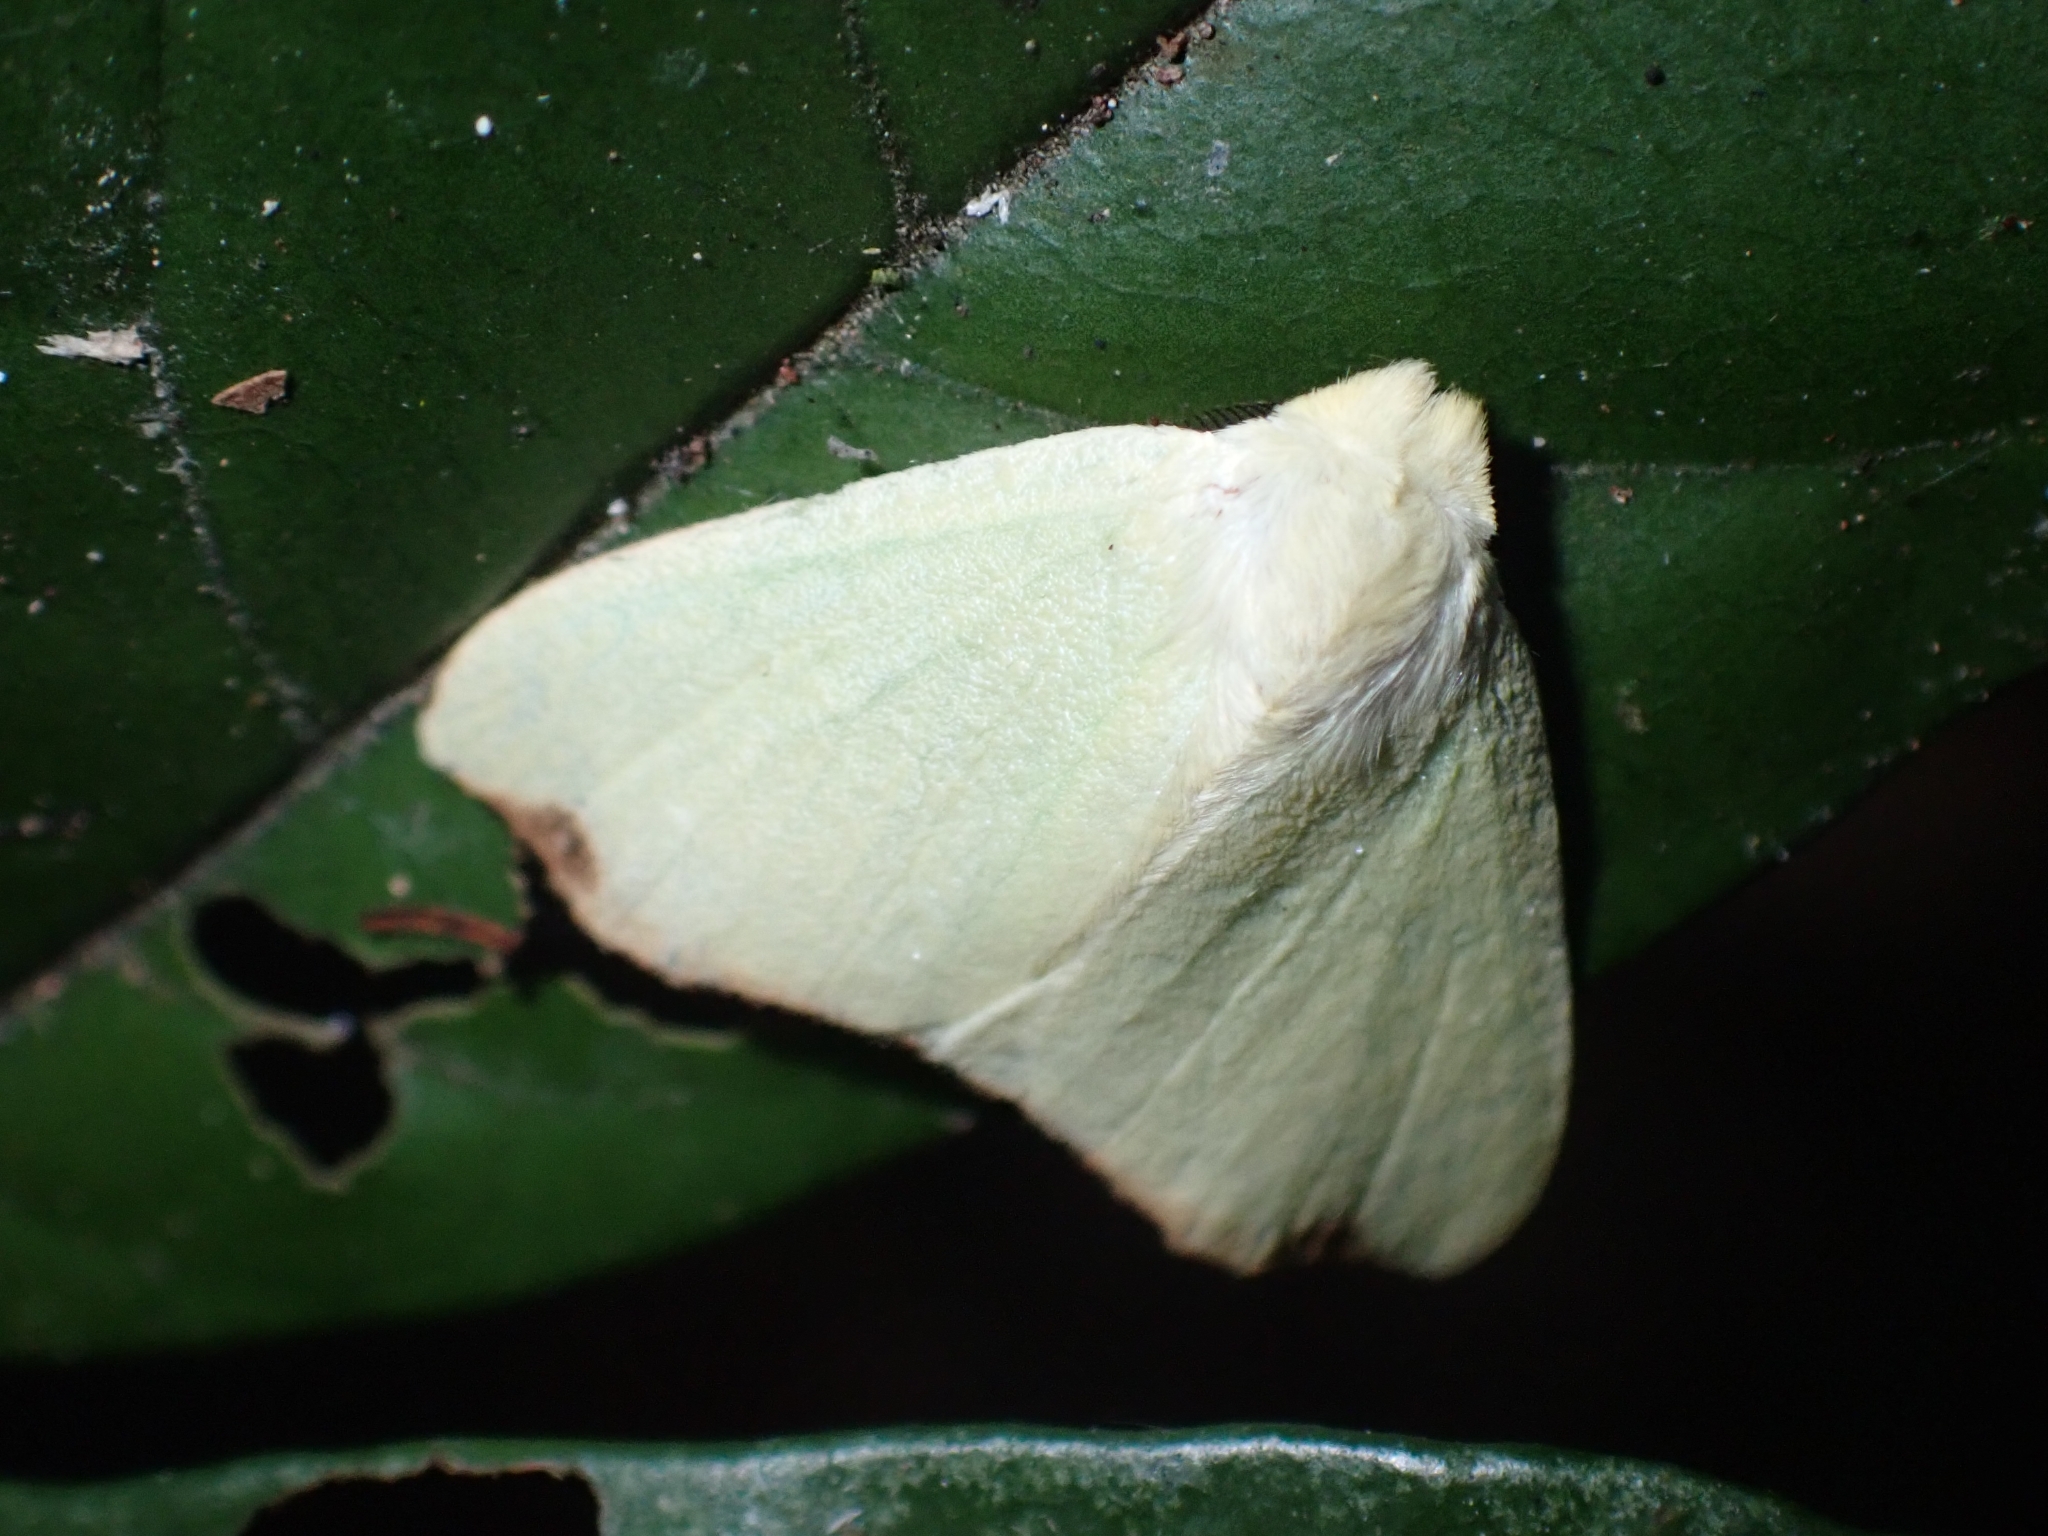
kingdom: Animalia
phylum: Arthropoda
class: Insecta
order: Lepidoptera
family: Erebidae
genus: Arctornis
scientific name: Arctornis rutila
